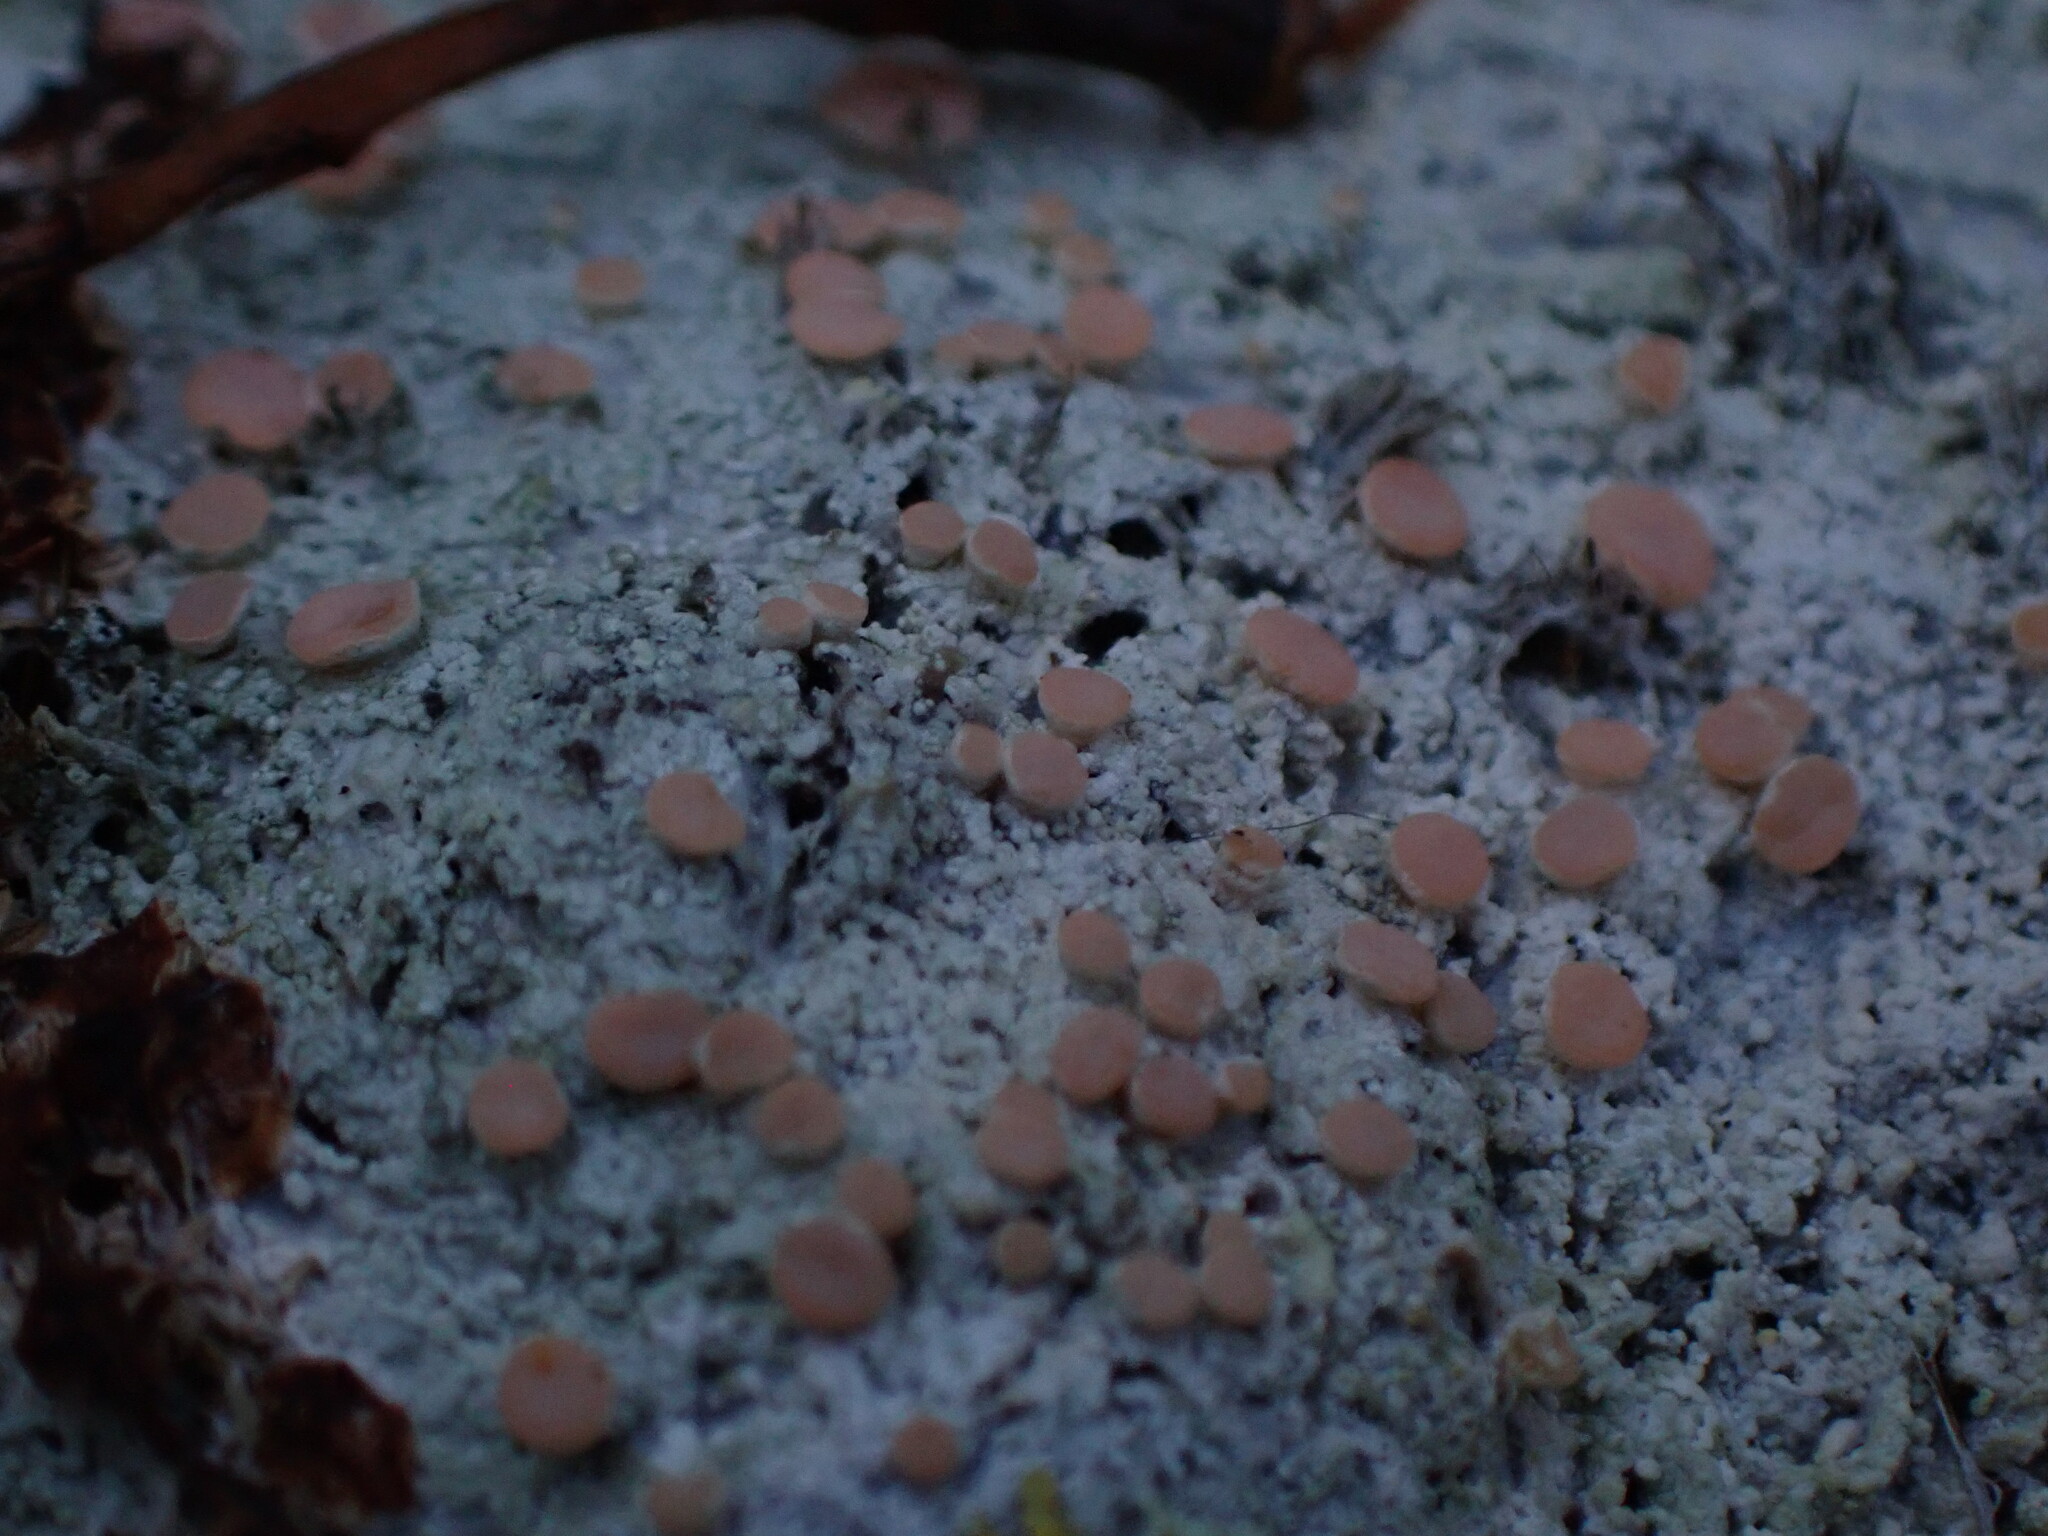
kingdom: Fungi
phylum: Ascomycota
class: Lecanoromycetes
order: Pertusariales
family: Icmadophilaceae
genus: Icmadophila
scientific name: Icmadophila ericetorum
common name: Candy lichen
